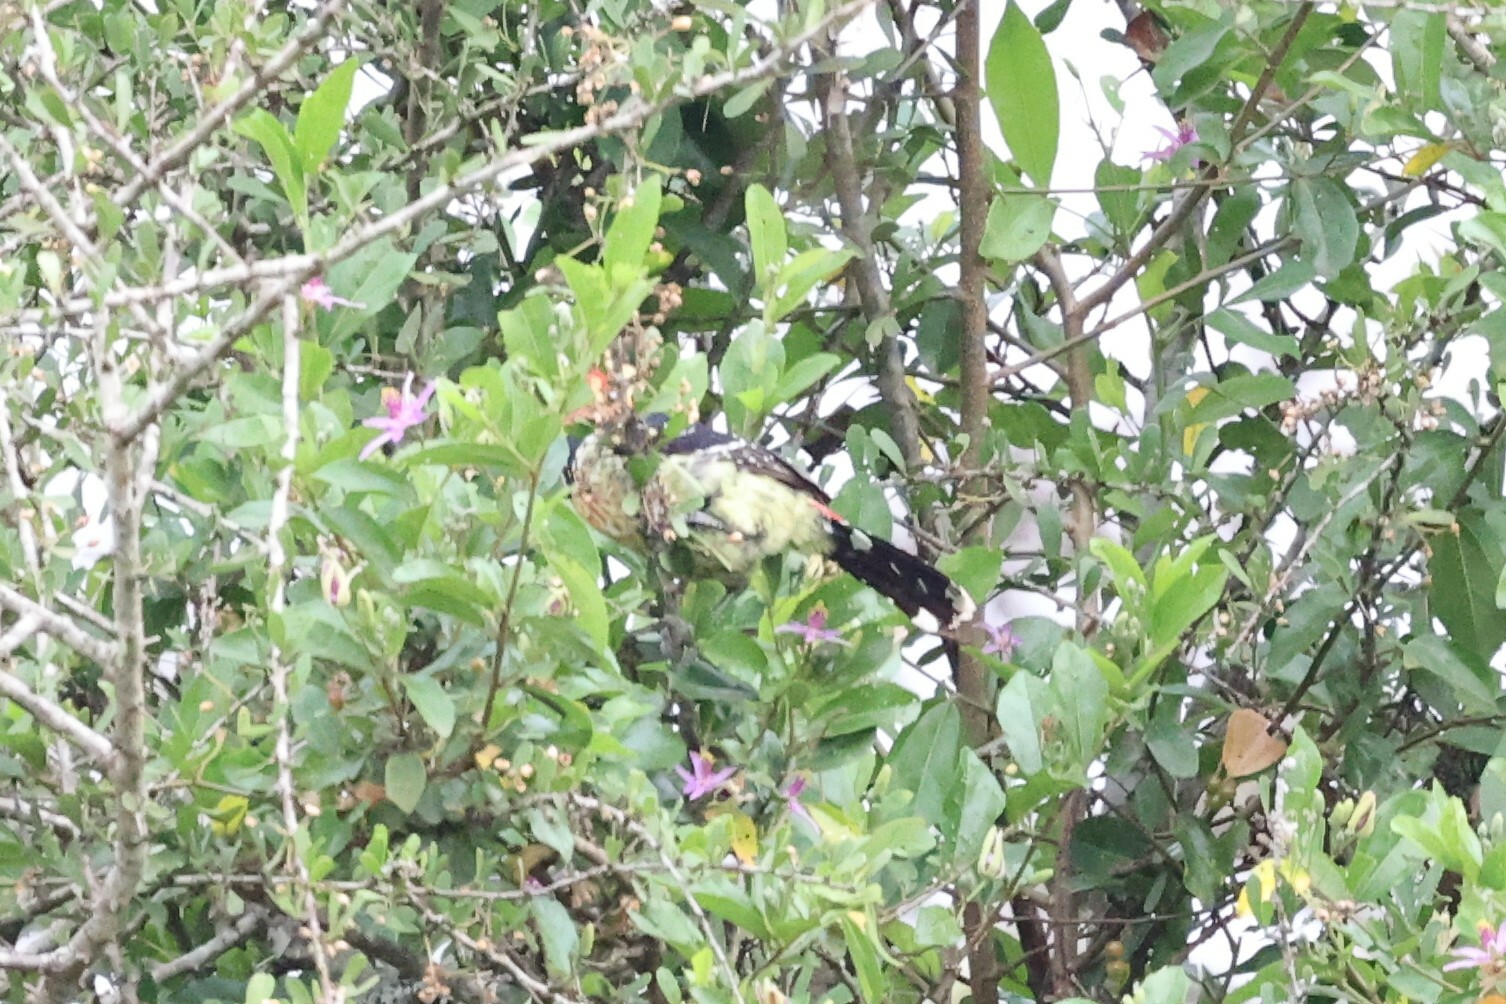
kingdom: Animalia
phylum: Chordata
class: Aves
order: Piciformes
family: Lybiidae
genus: Trachyphonus
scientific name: Trachyphonus vaillantii
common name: Crested barbet
